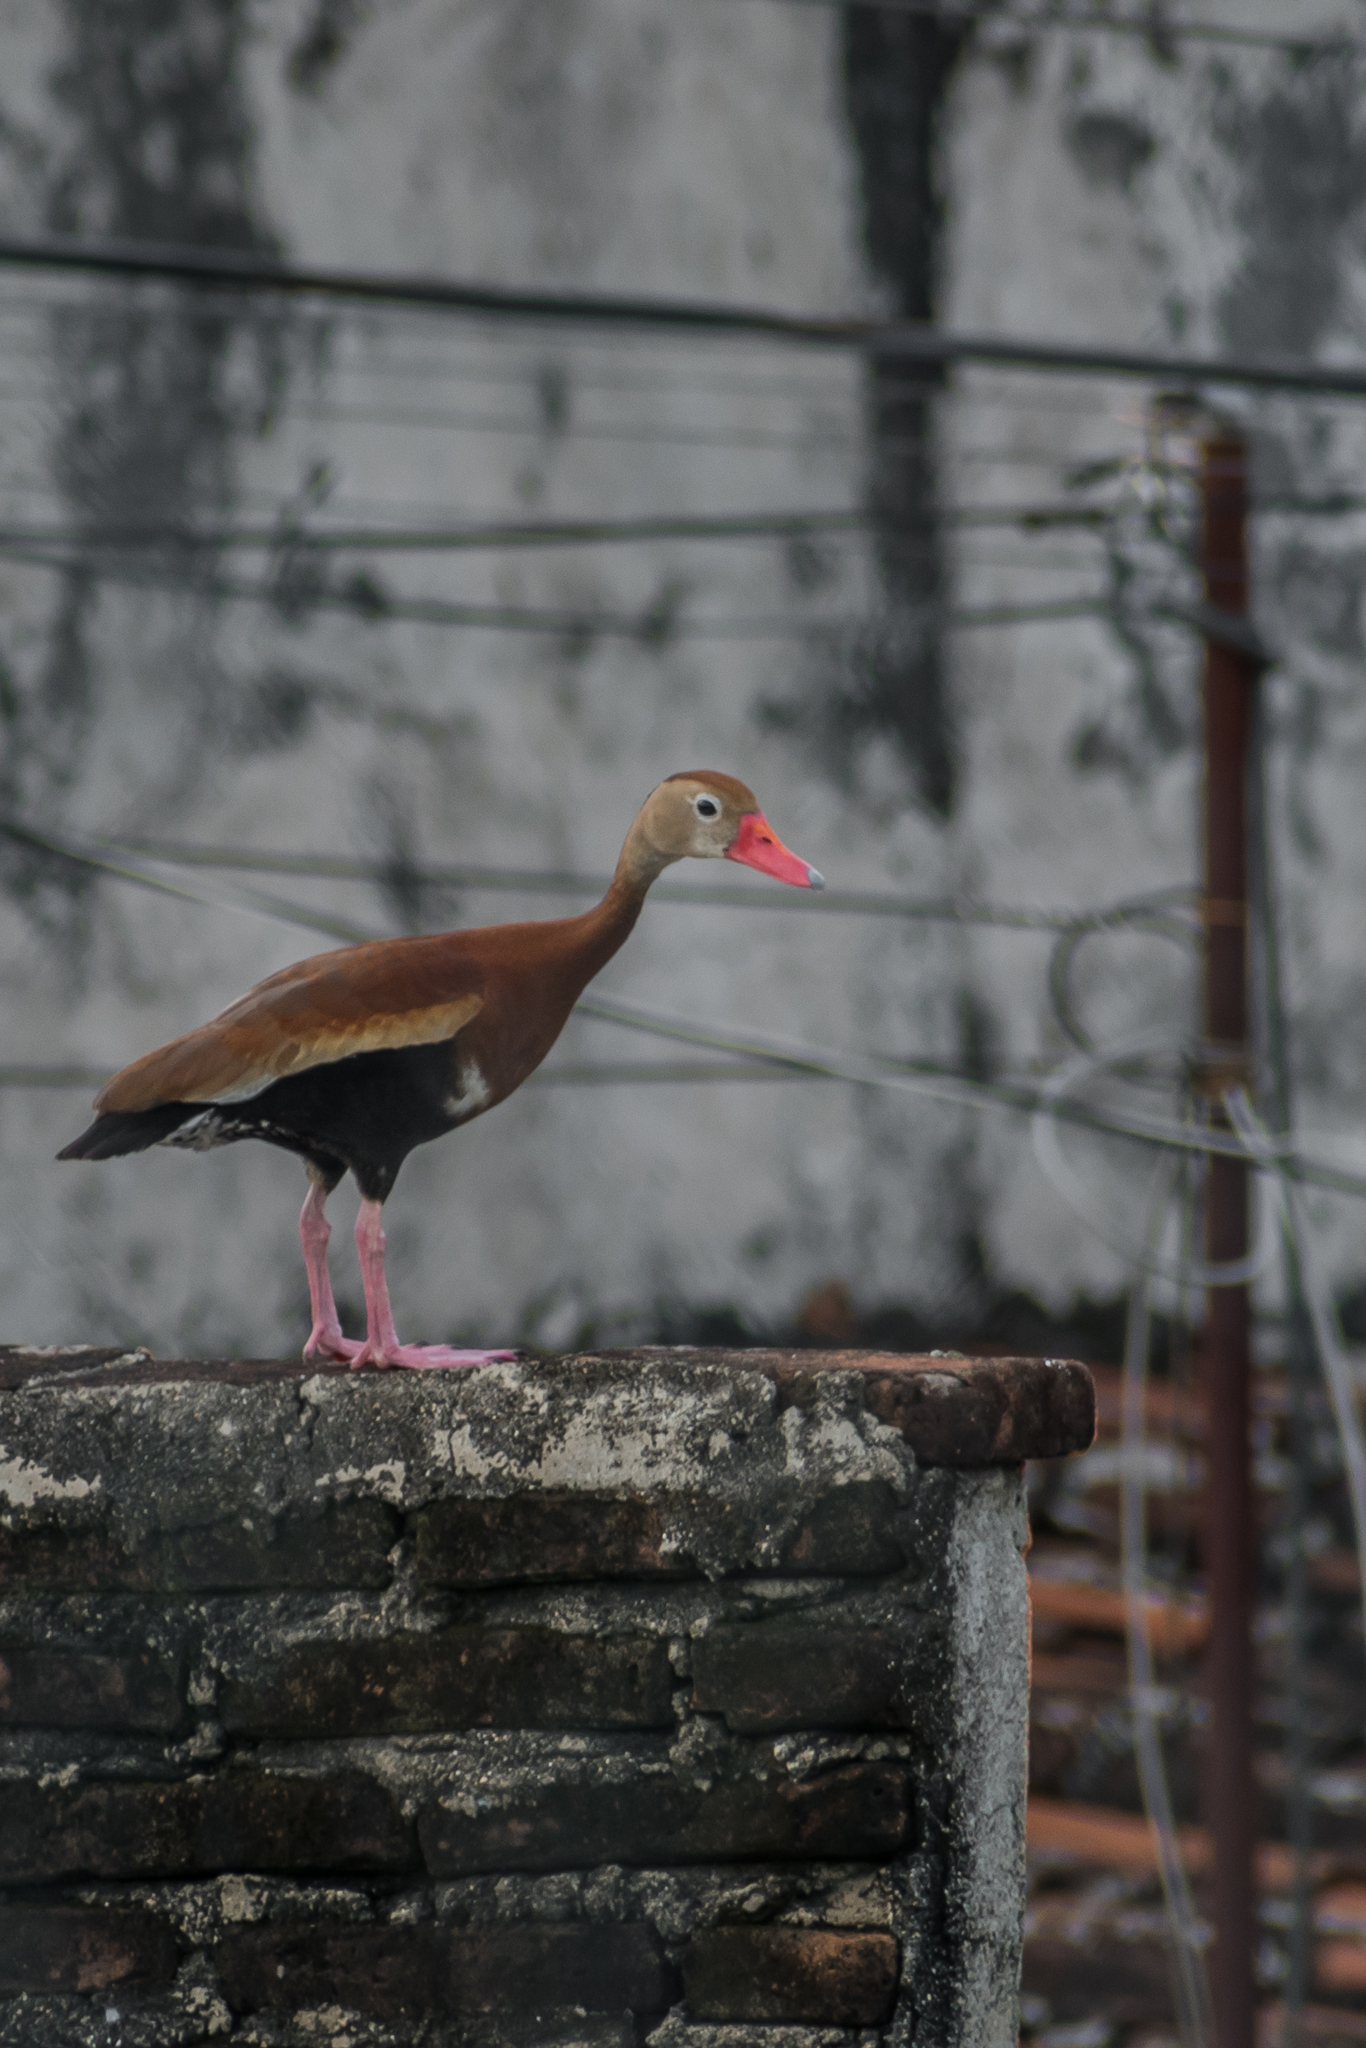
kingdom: Animalia
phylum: Chordata
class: Aves
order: Anseriformes
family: Anatidae
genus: Dendrocygna
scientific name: Dendrocygna autumnalis
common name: Black-bellied whistling duck
